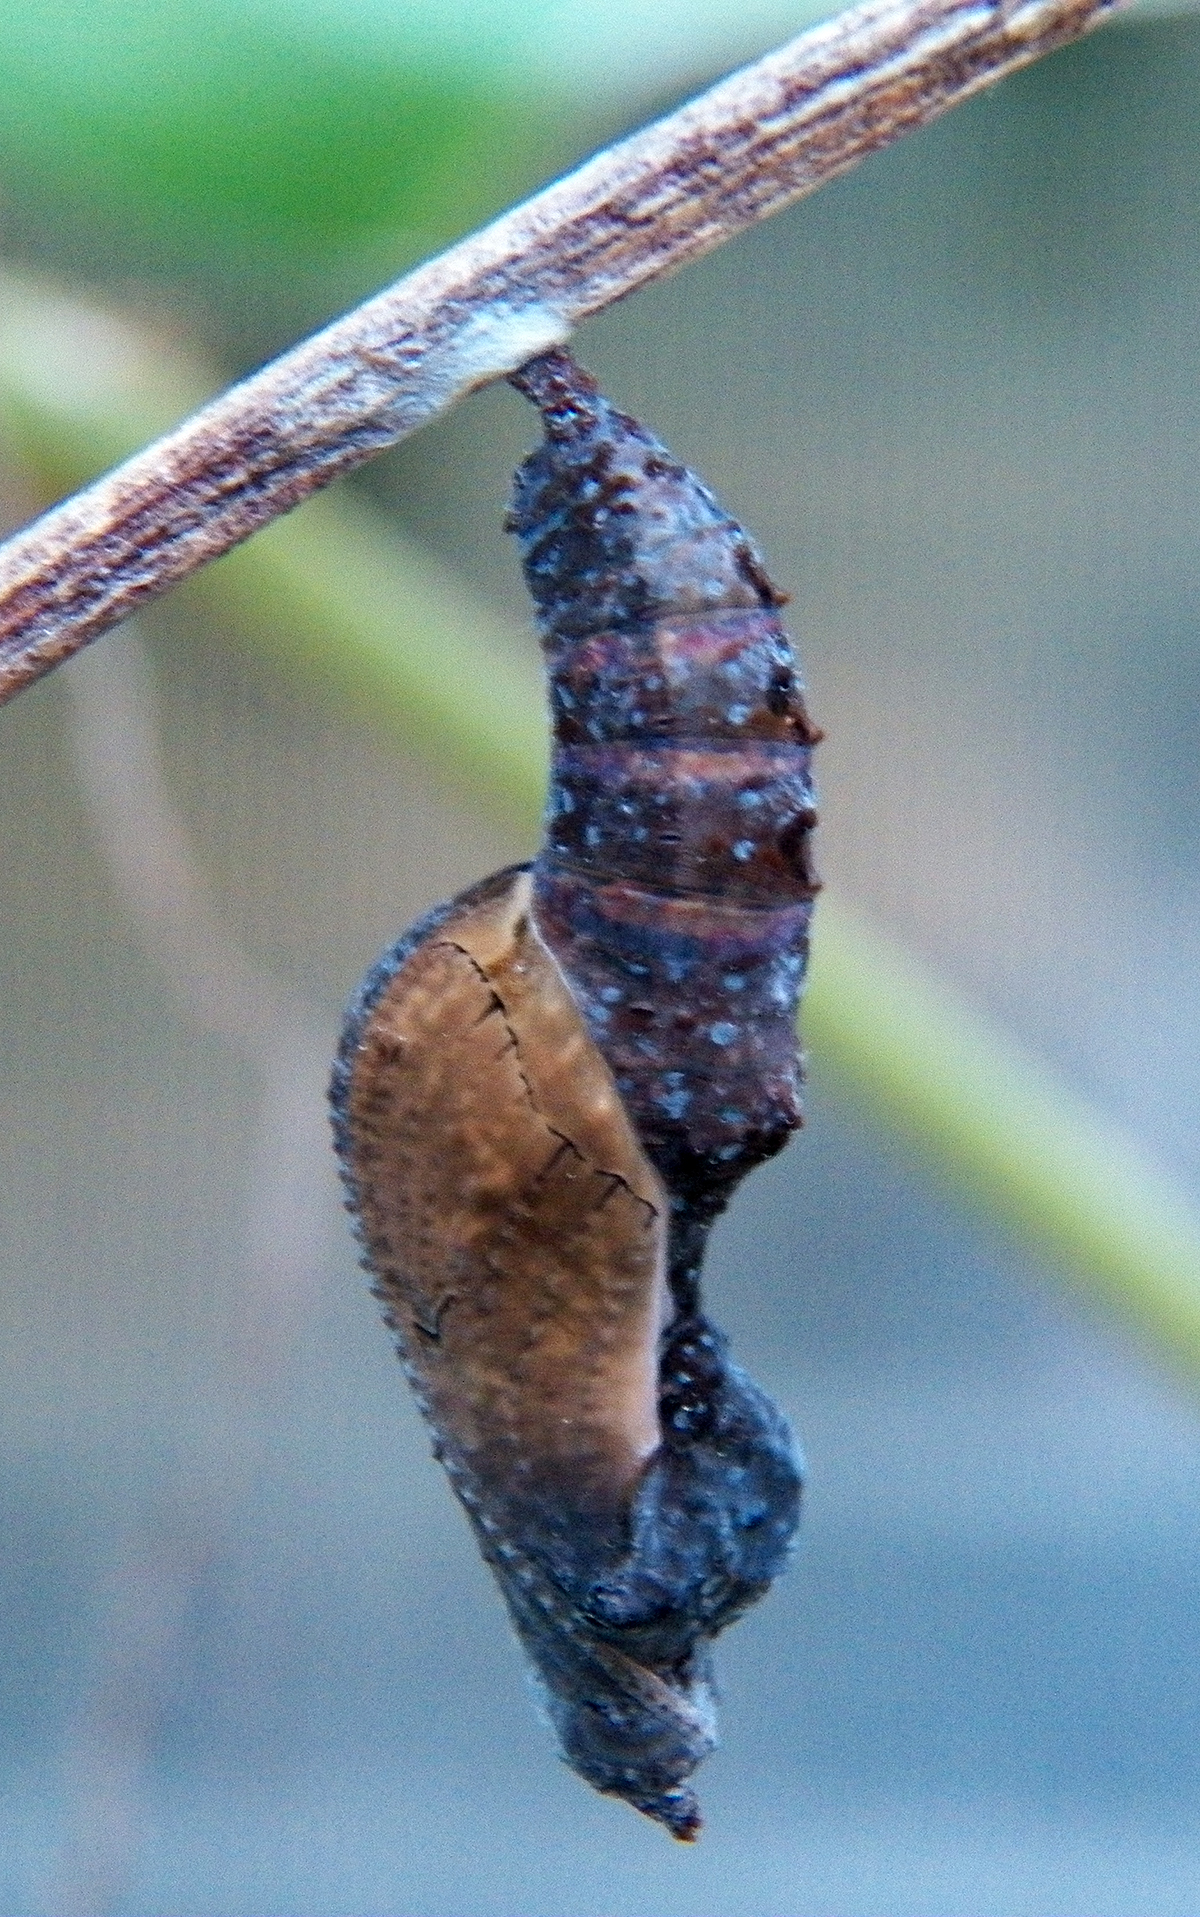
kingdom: Animalia
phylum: Arthropoda
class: Insecta
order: Lepidoptera
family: Nymphalidae
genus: Dione
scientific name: Dione vanillae
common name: Gulf fritillary
